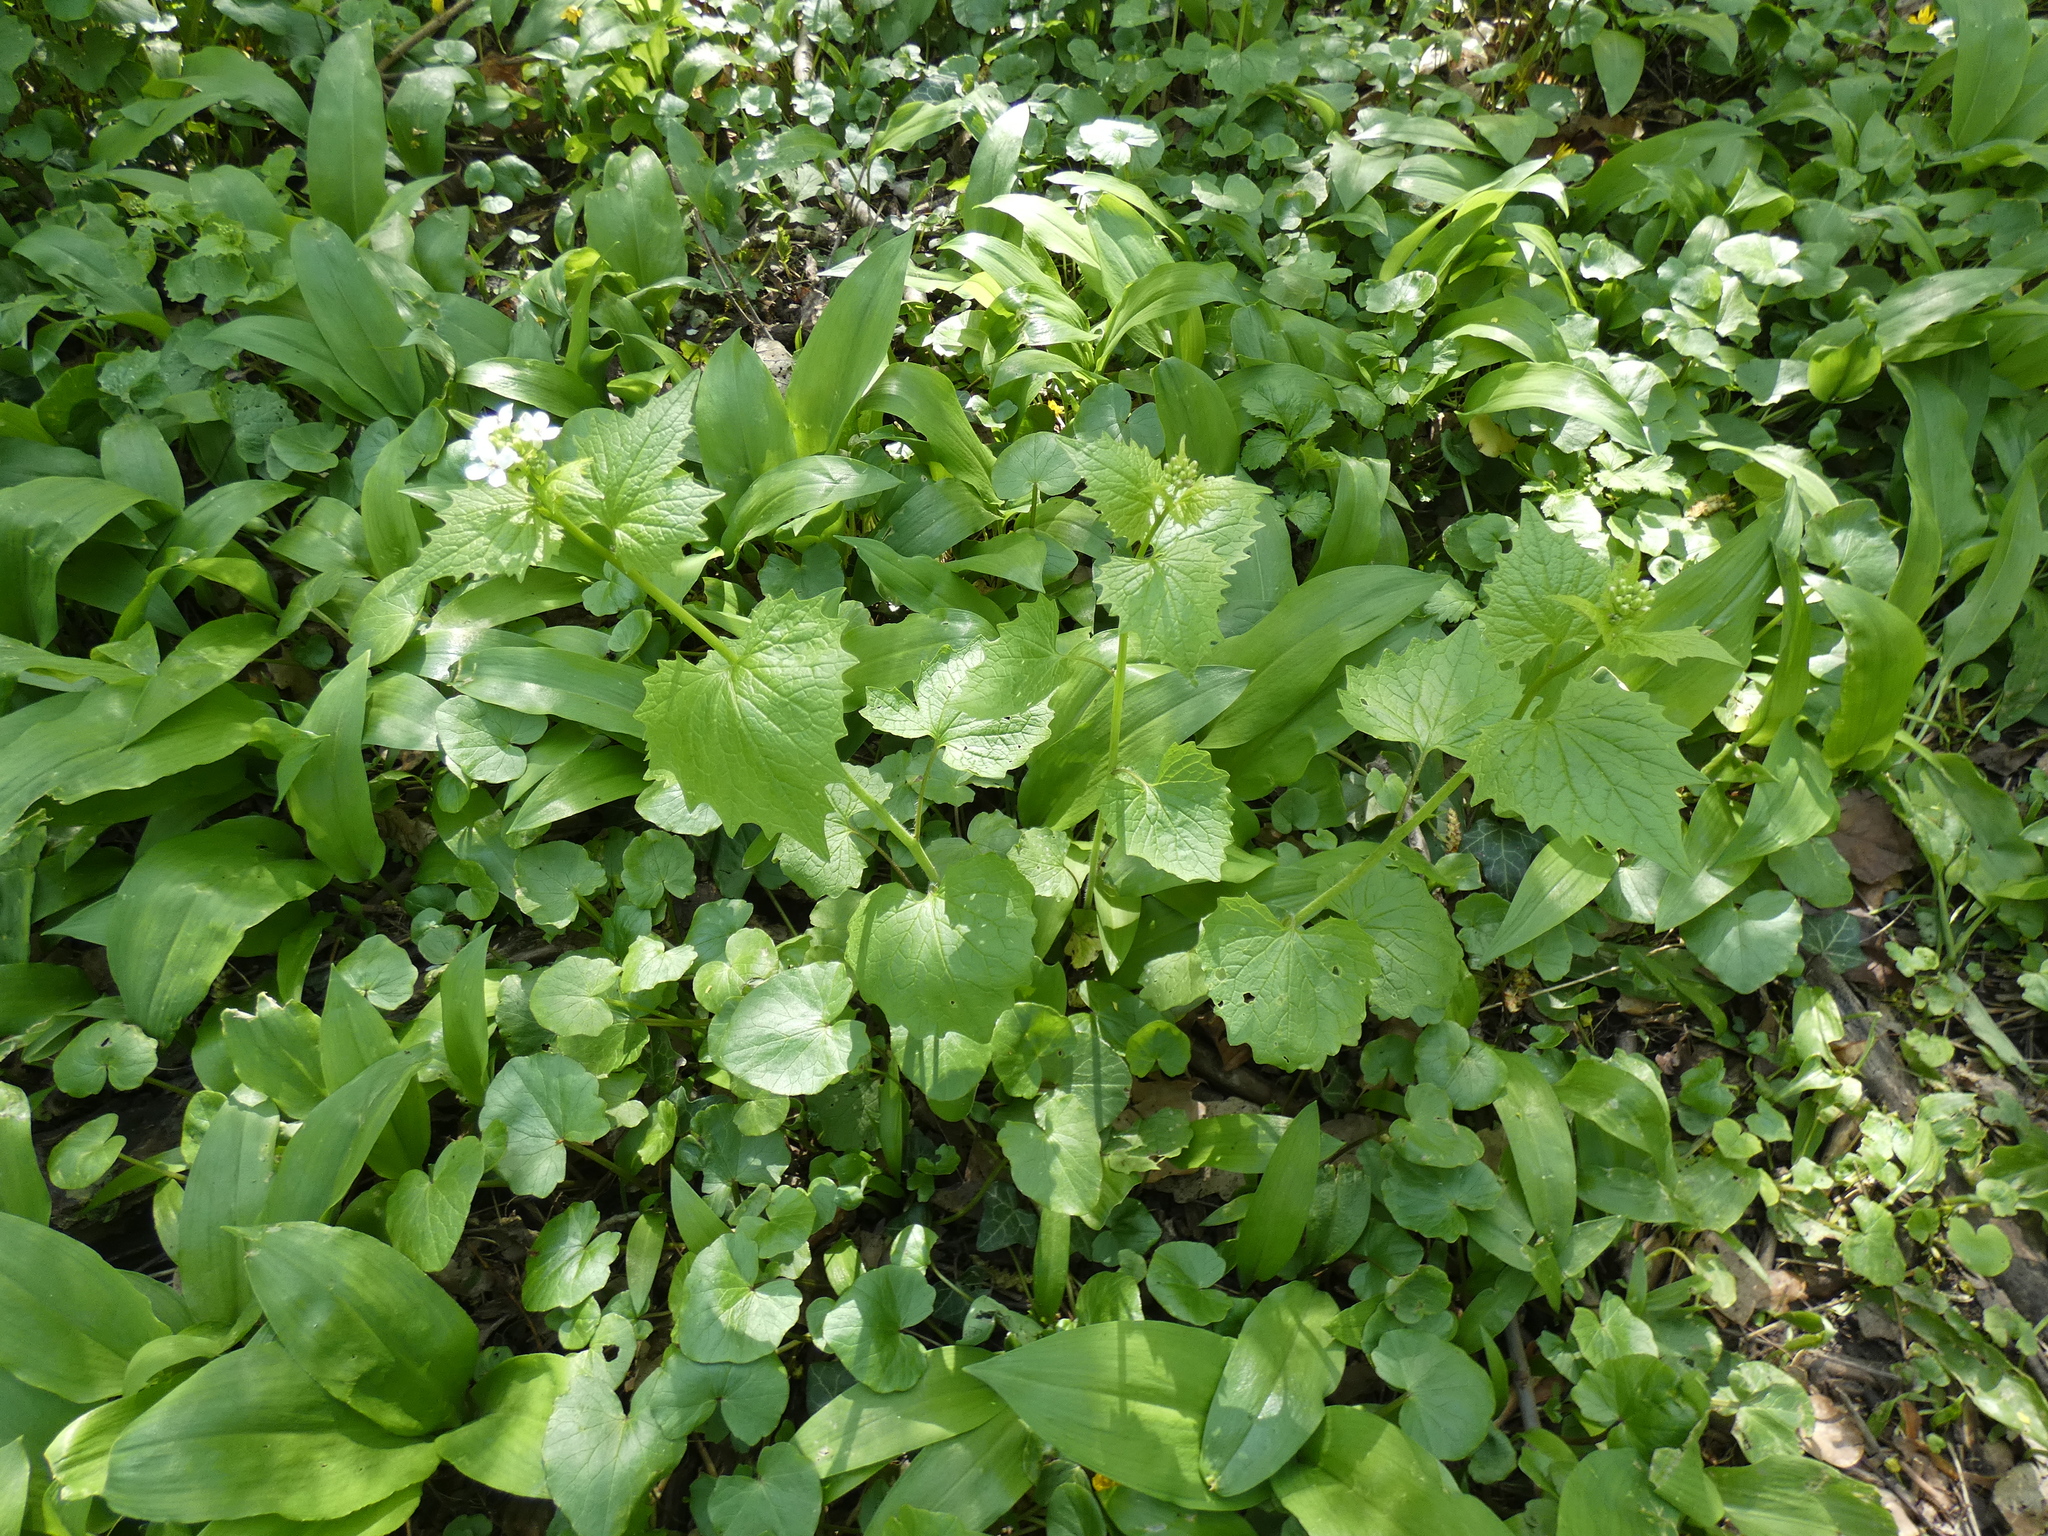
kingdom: Plantae
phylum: Tracheophyta
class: Magnoliopsida
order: Brassicales
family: Brassicaceae
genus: Alliaria
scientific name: Alliaria petiolata
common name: Garlic mustard
